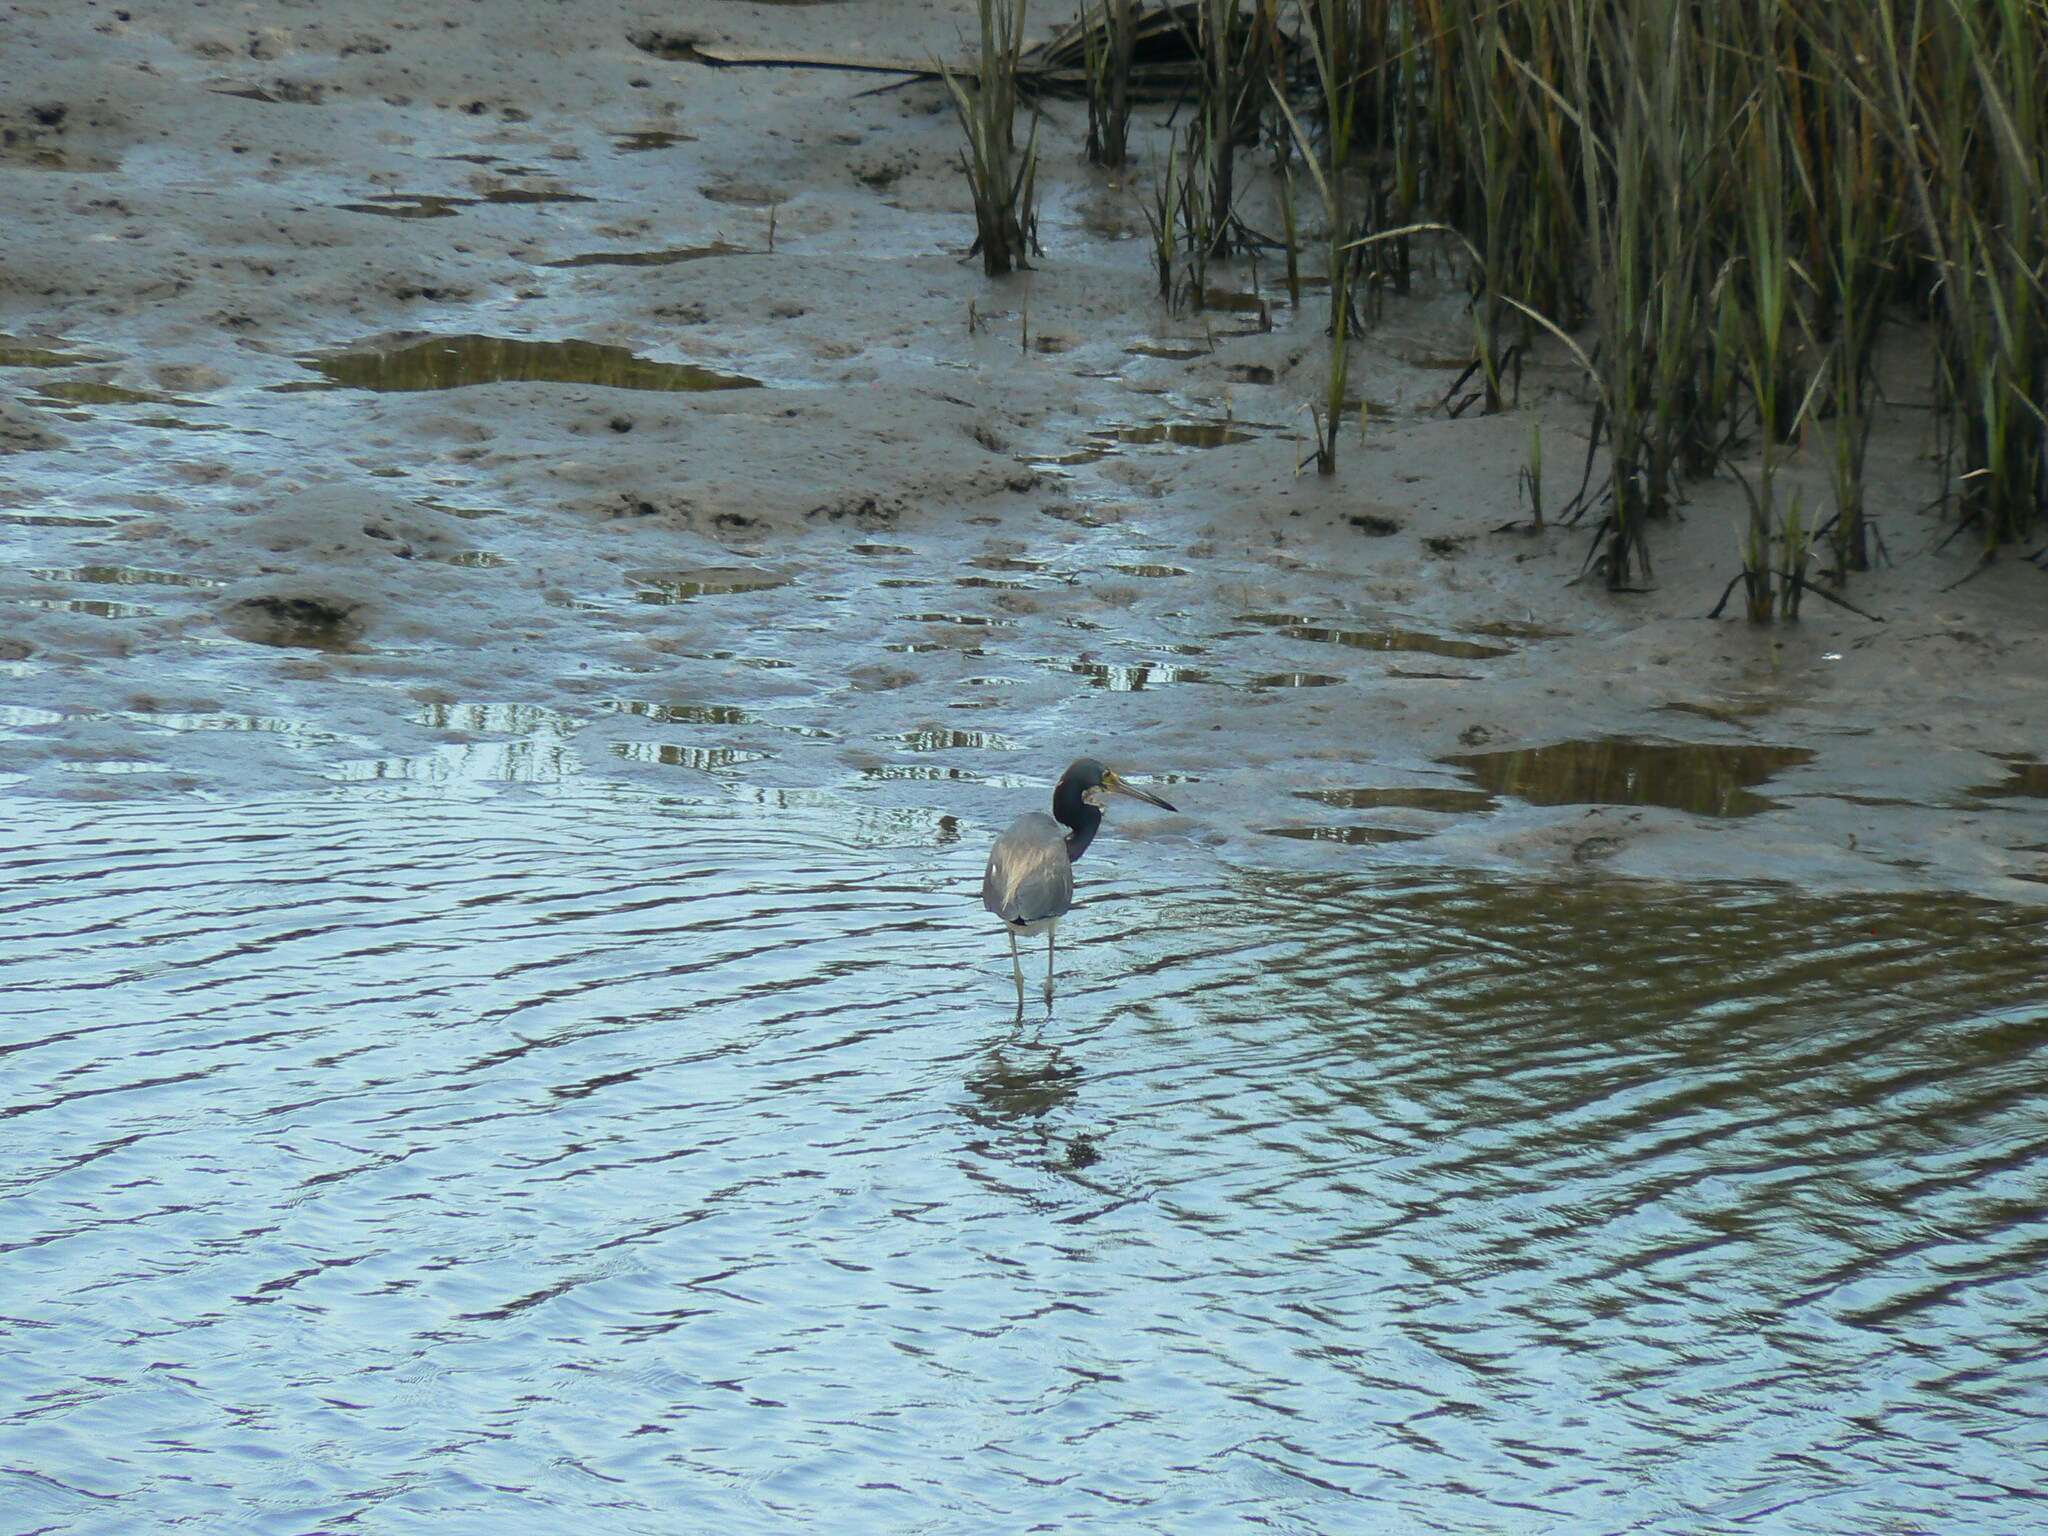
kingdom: Animalia
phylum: Chordata
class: Aves
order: Pelecaniformes
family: Ardeidae
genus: Egretta
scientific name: Egretta tricolor
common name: Tricolored heron
